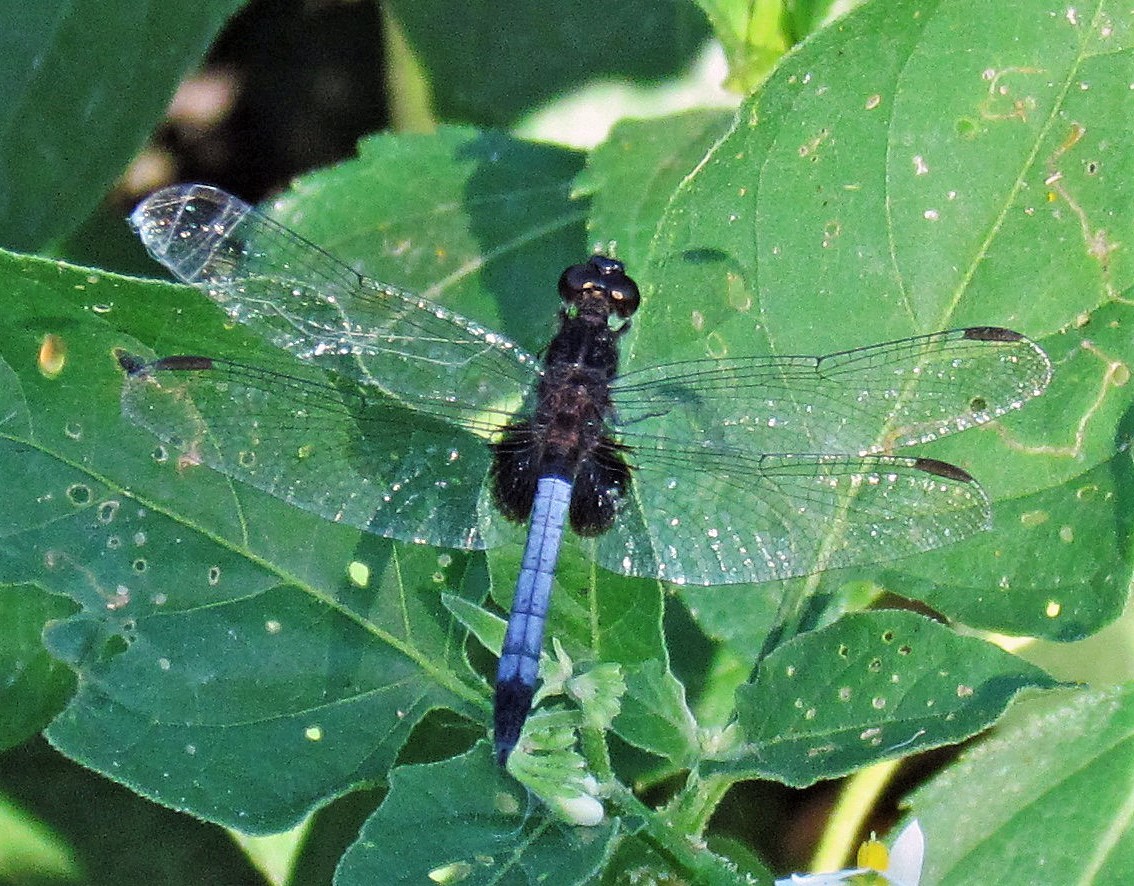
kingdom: Animalia
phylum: Arthropoda
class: Insecta
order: Odonata
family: Libellulidae
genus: Erythrodiplax
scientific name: Erythrodiplax media
